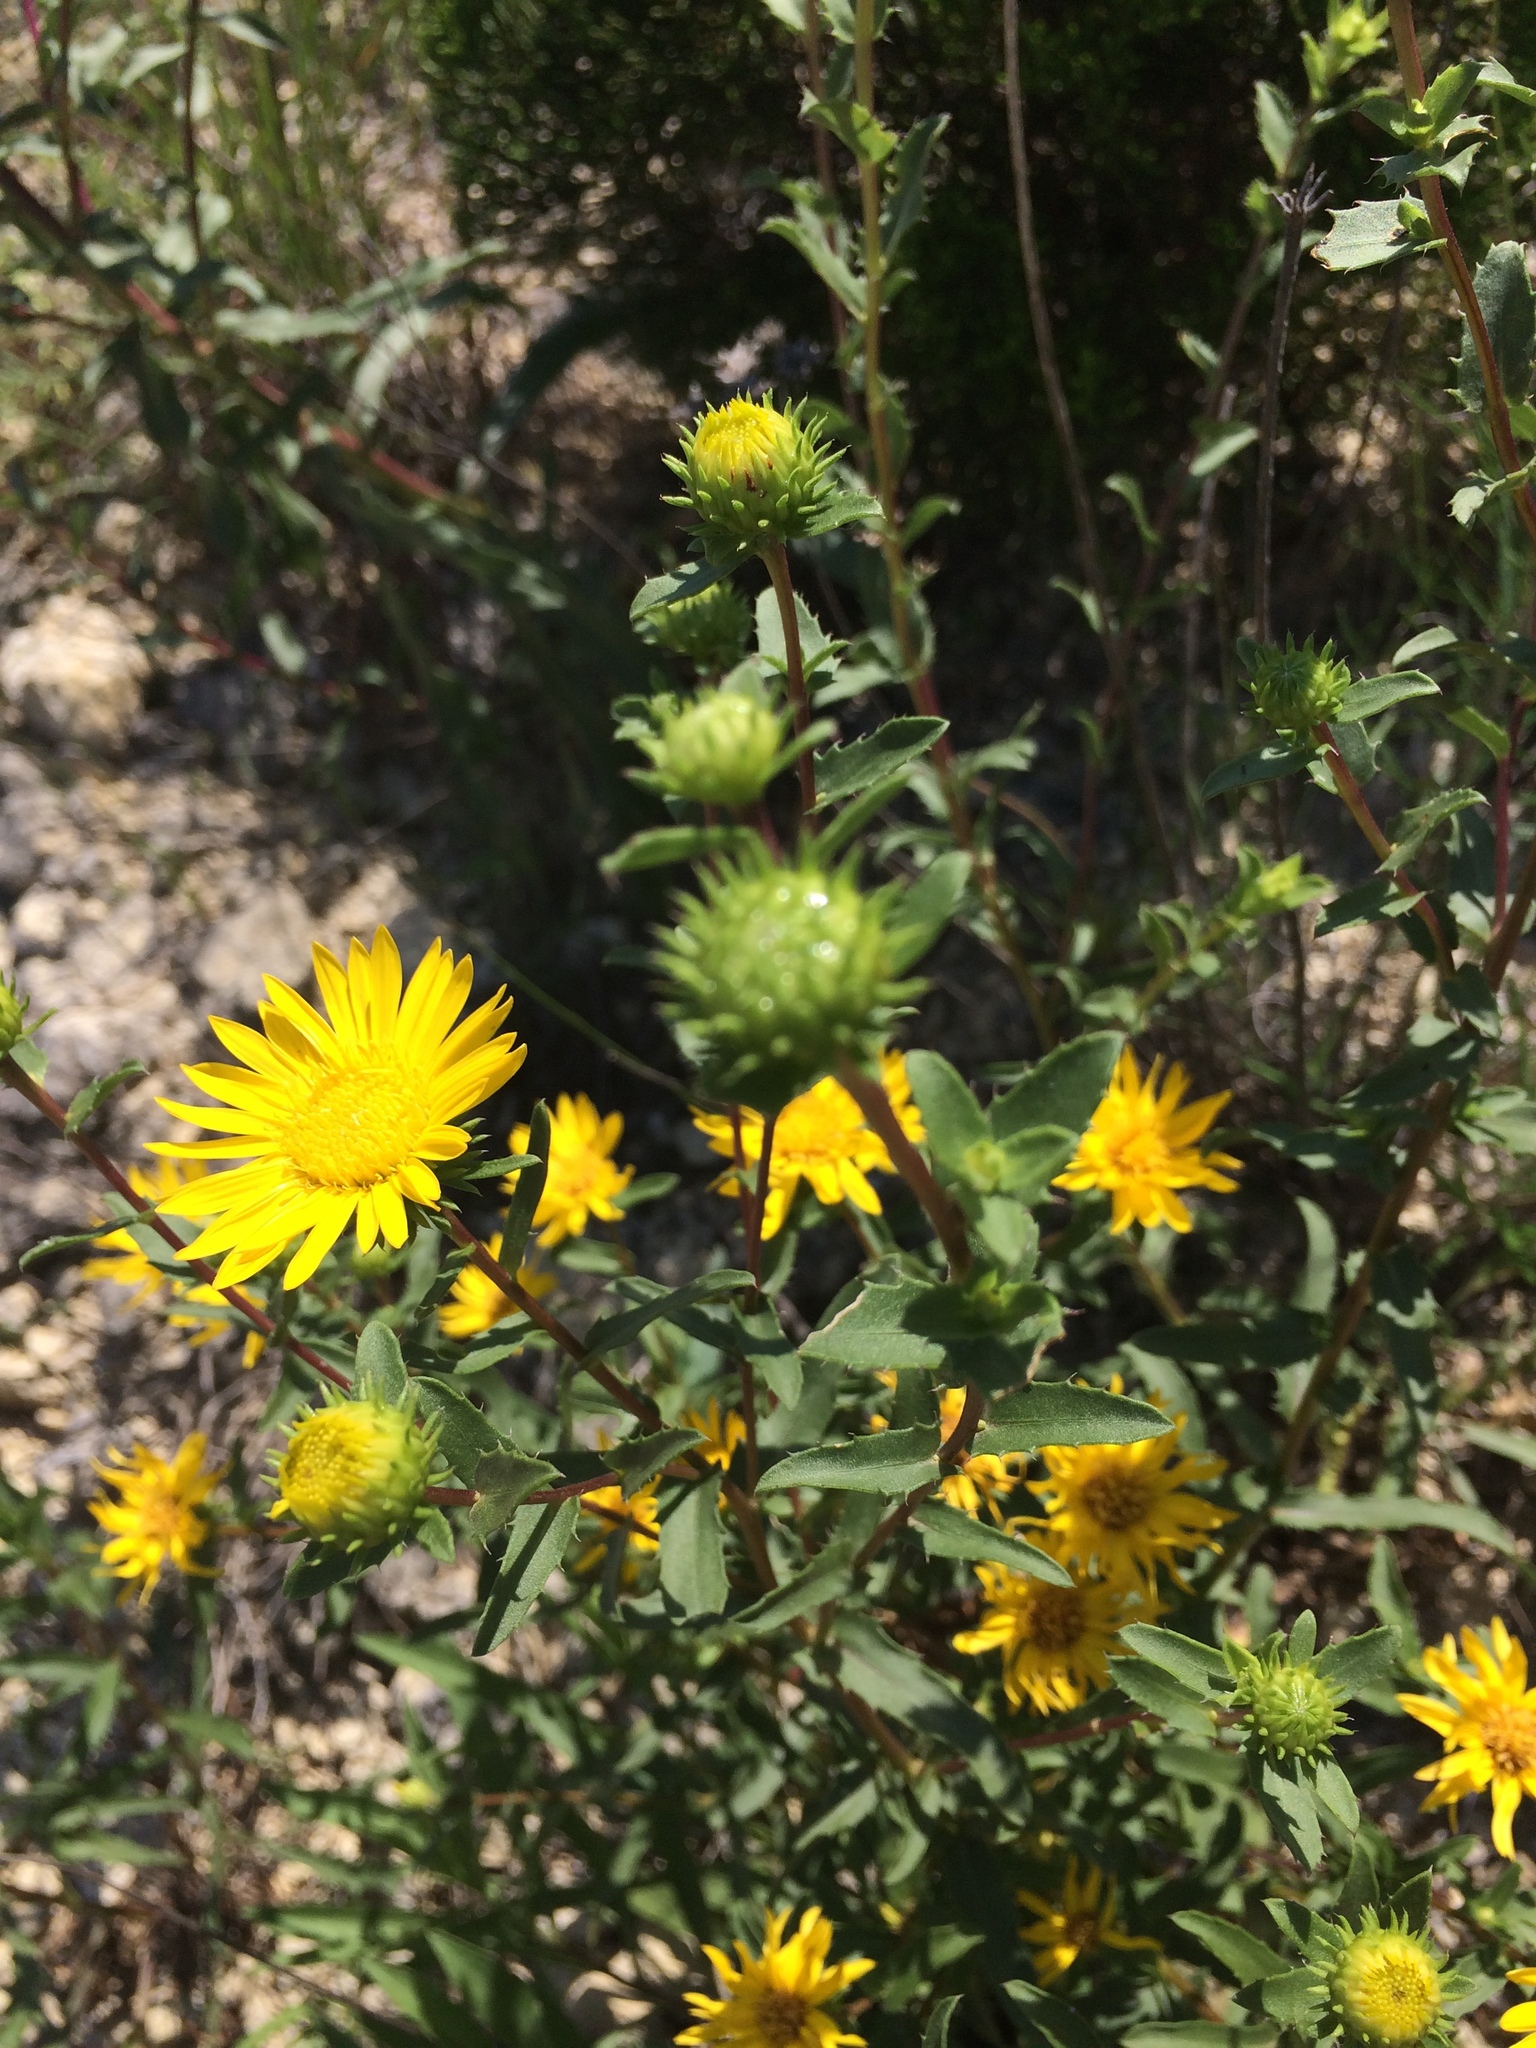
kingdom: Plantae
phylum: Tracheophyta
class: Magnoliopsida
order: Asterales
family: Asteraceae
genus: Grindelia
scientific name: Grindelia lanceolata
